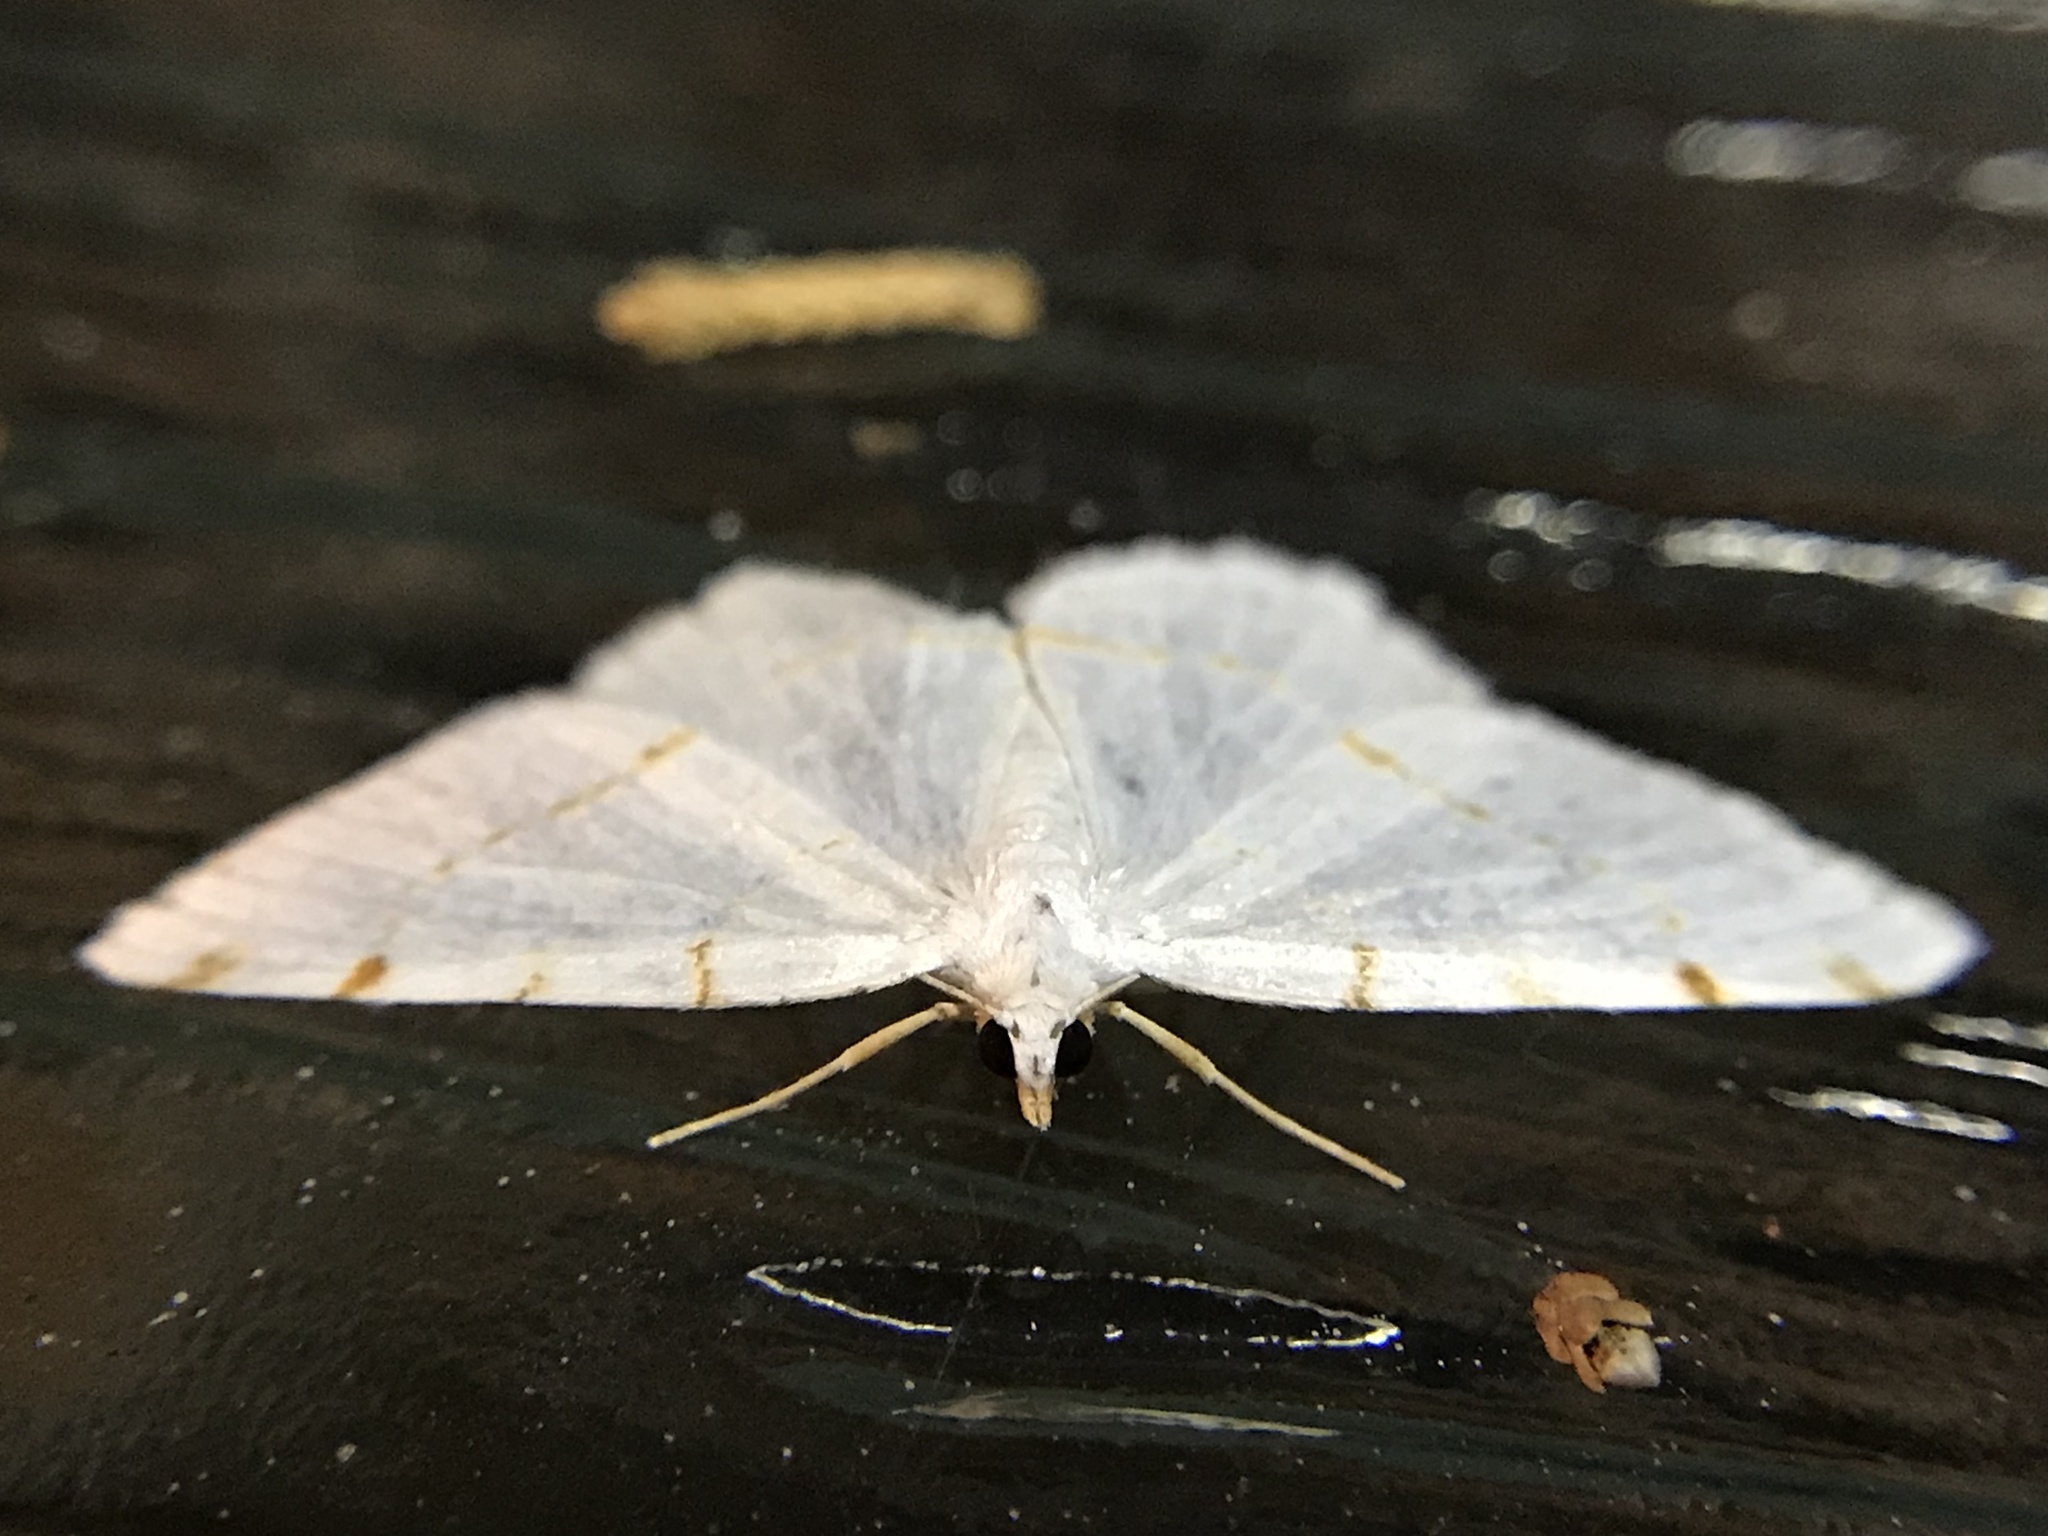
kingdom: Animalia
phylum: Arthropoda
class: Insecta
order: Lepidoptera
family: Geometridae
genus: Macaria
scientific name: Macaria pustularia
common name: Lesser maple spanworm moth
